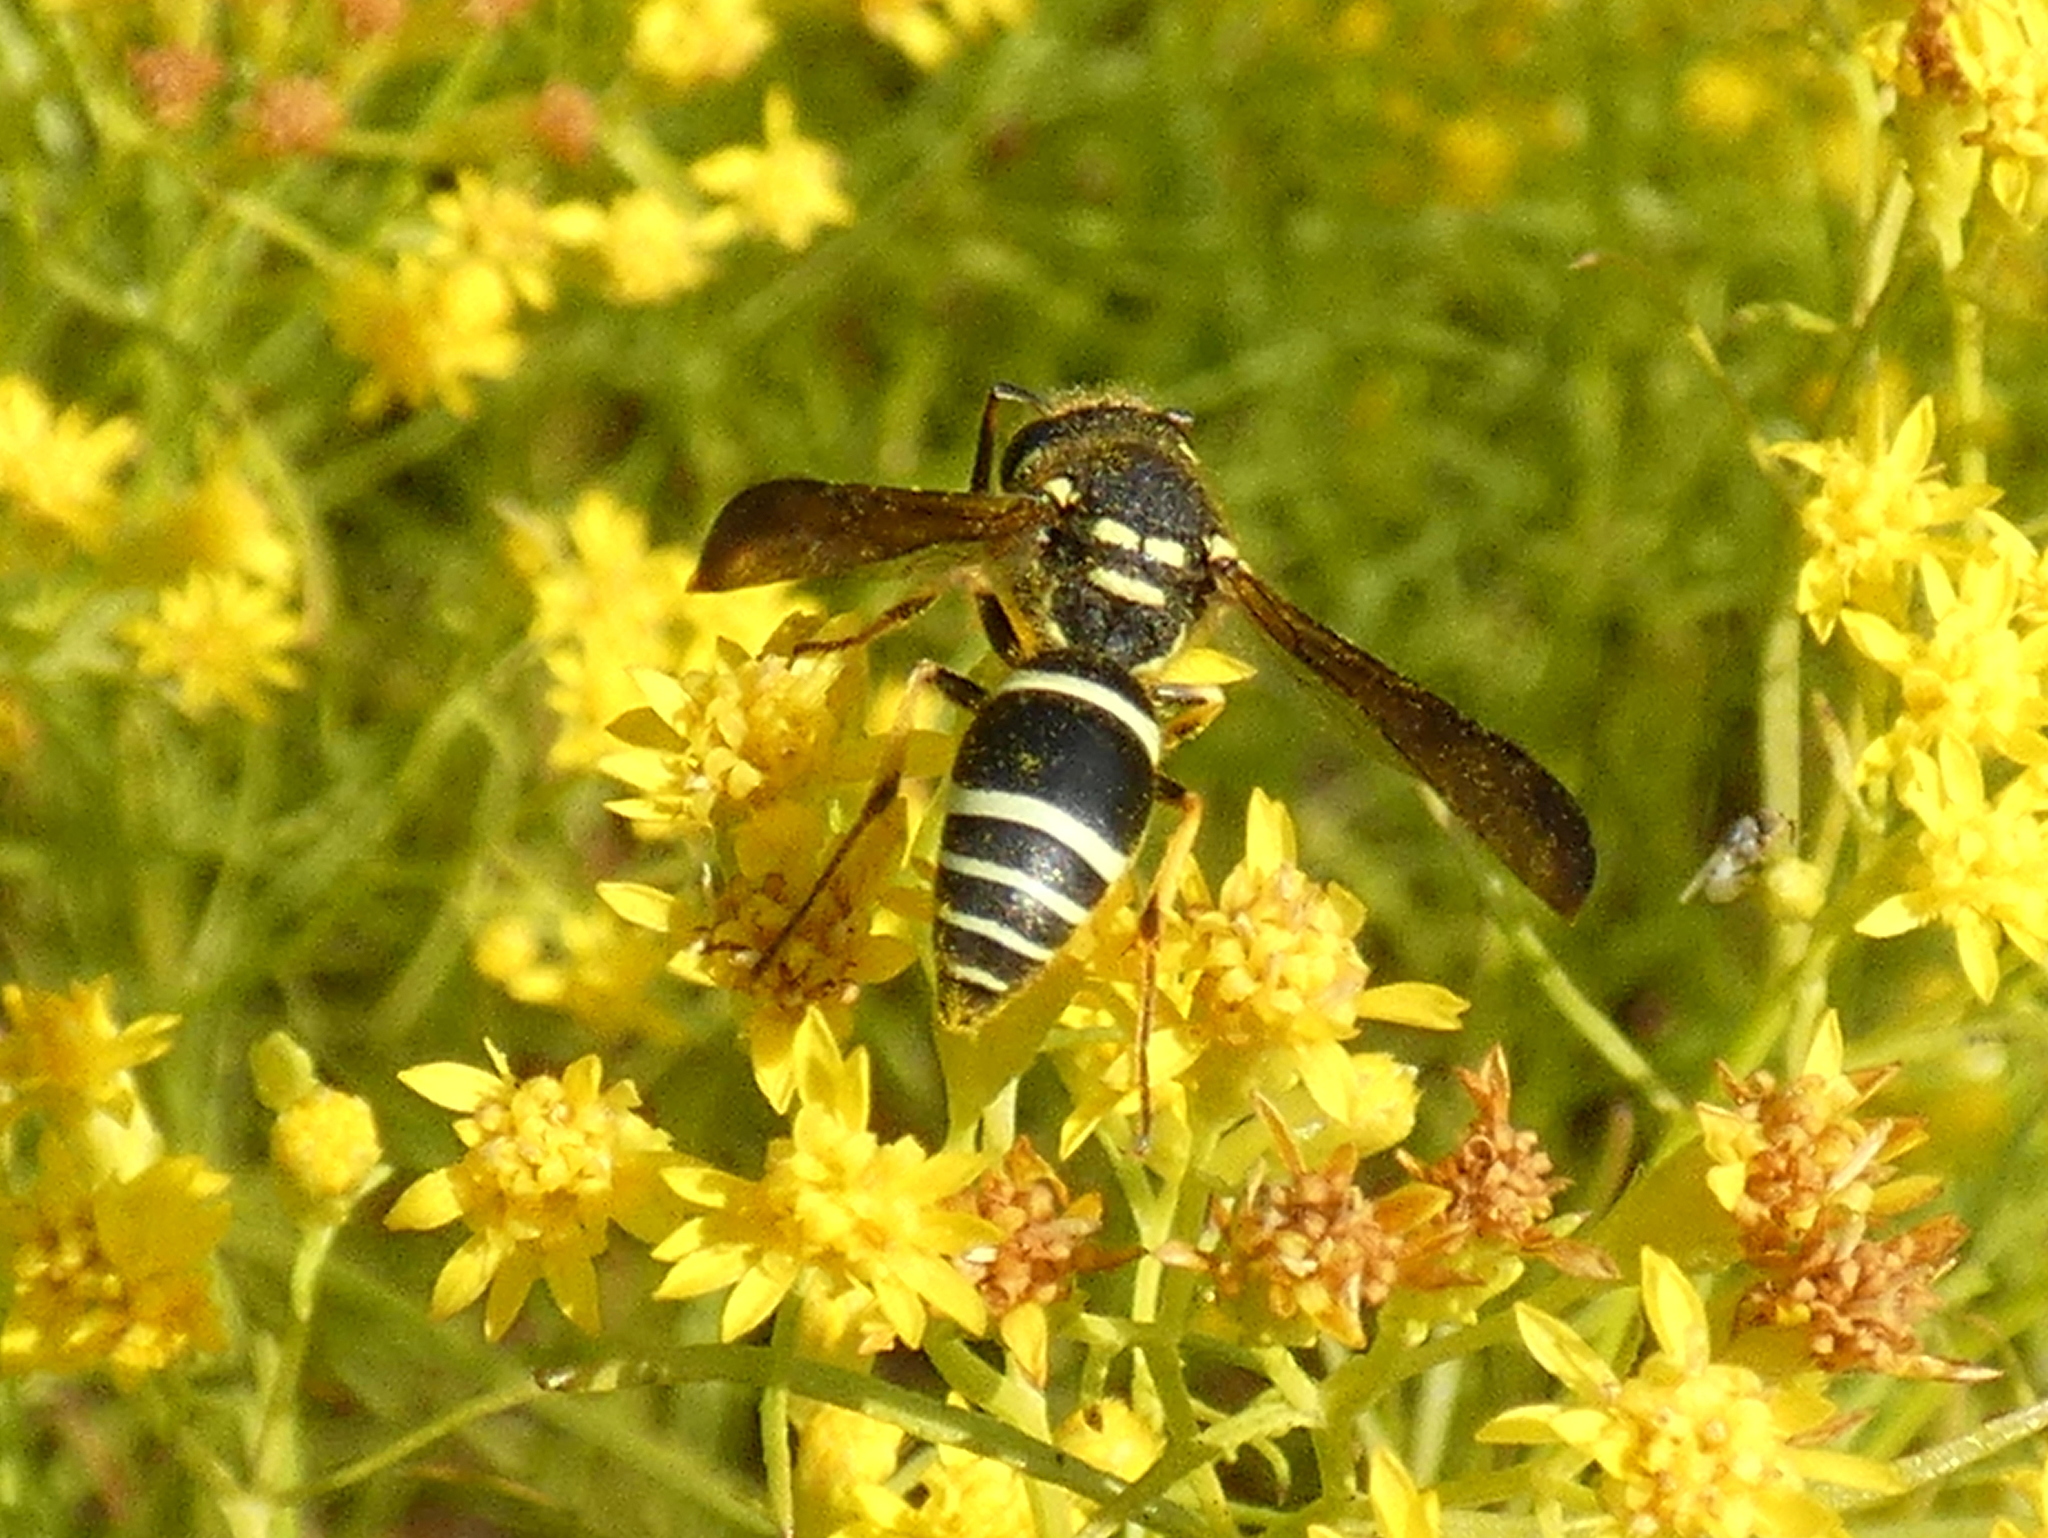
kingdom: Animalia
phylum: Arthropoda
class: Insecta
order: Hymenoptera
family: Vespidae
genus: Ancistrocerus
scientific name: Ancistrocerus catskill
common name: Vespid wasp
